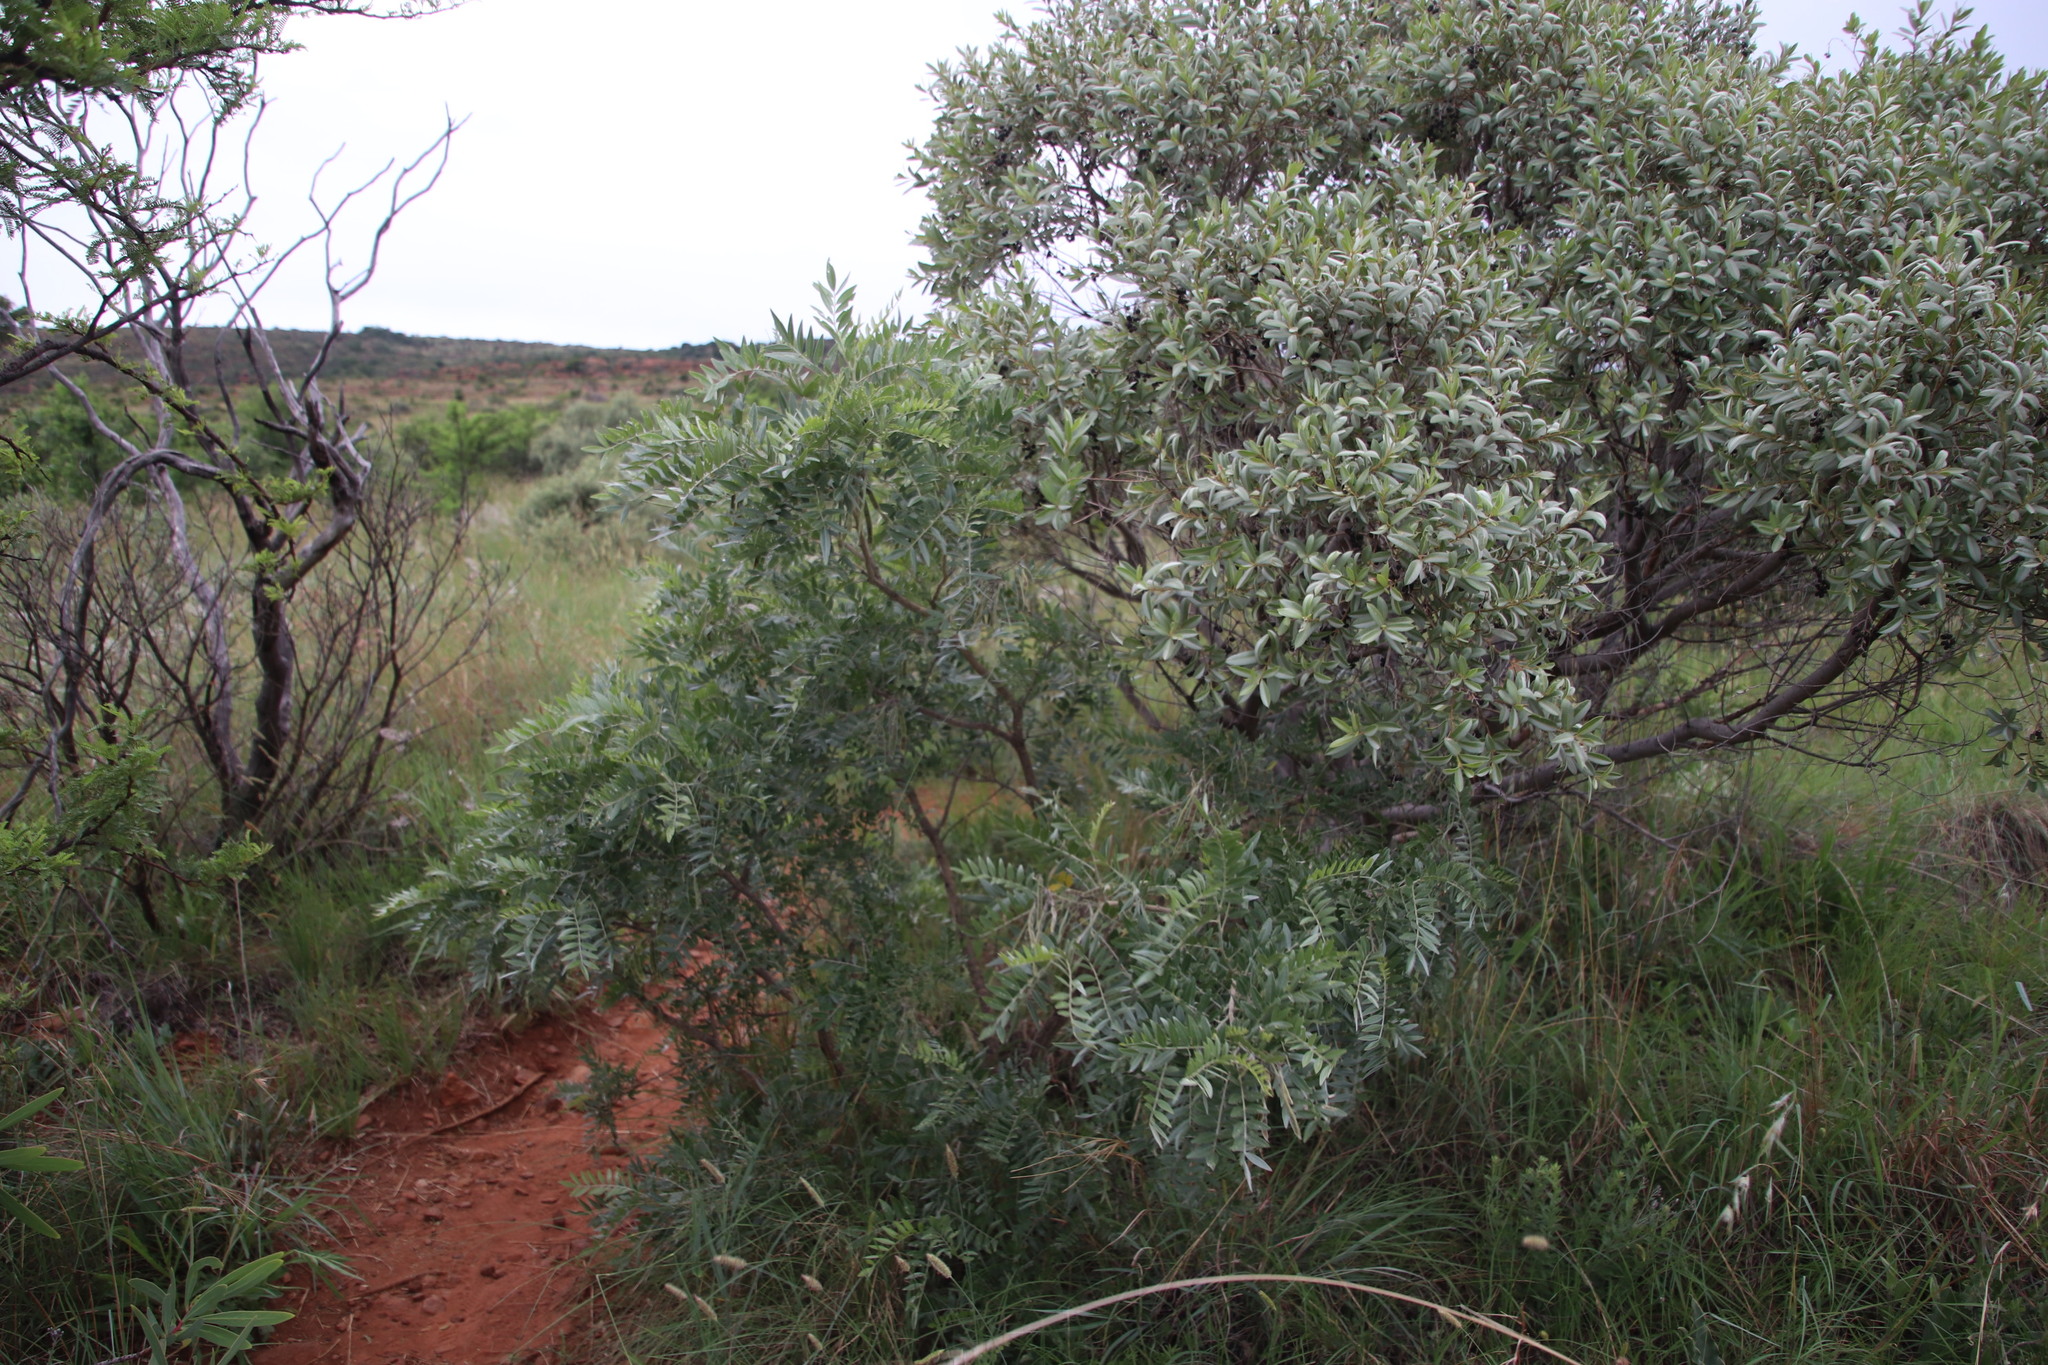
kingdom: Plantae
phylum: Tracheophyta
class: Magnoliopsida
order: Fabales
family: Fabaceae
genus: Mundulea
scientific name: Mundulea sericea
